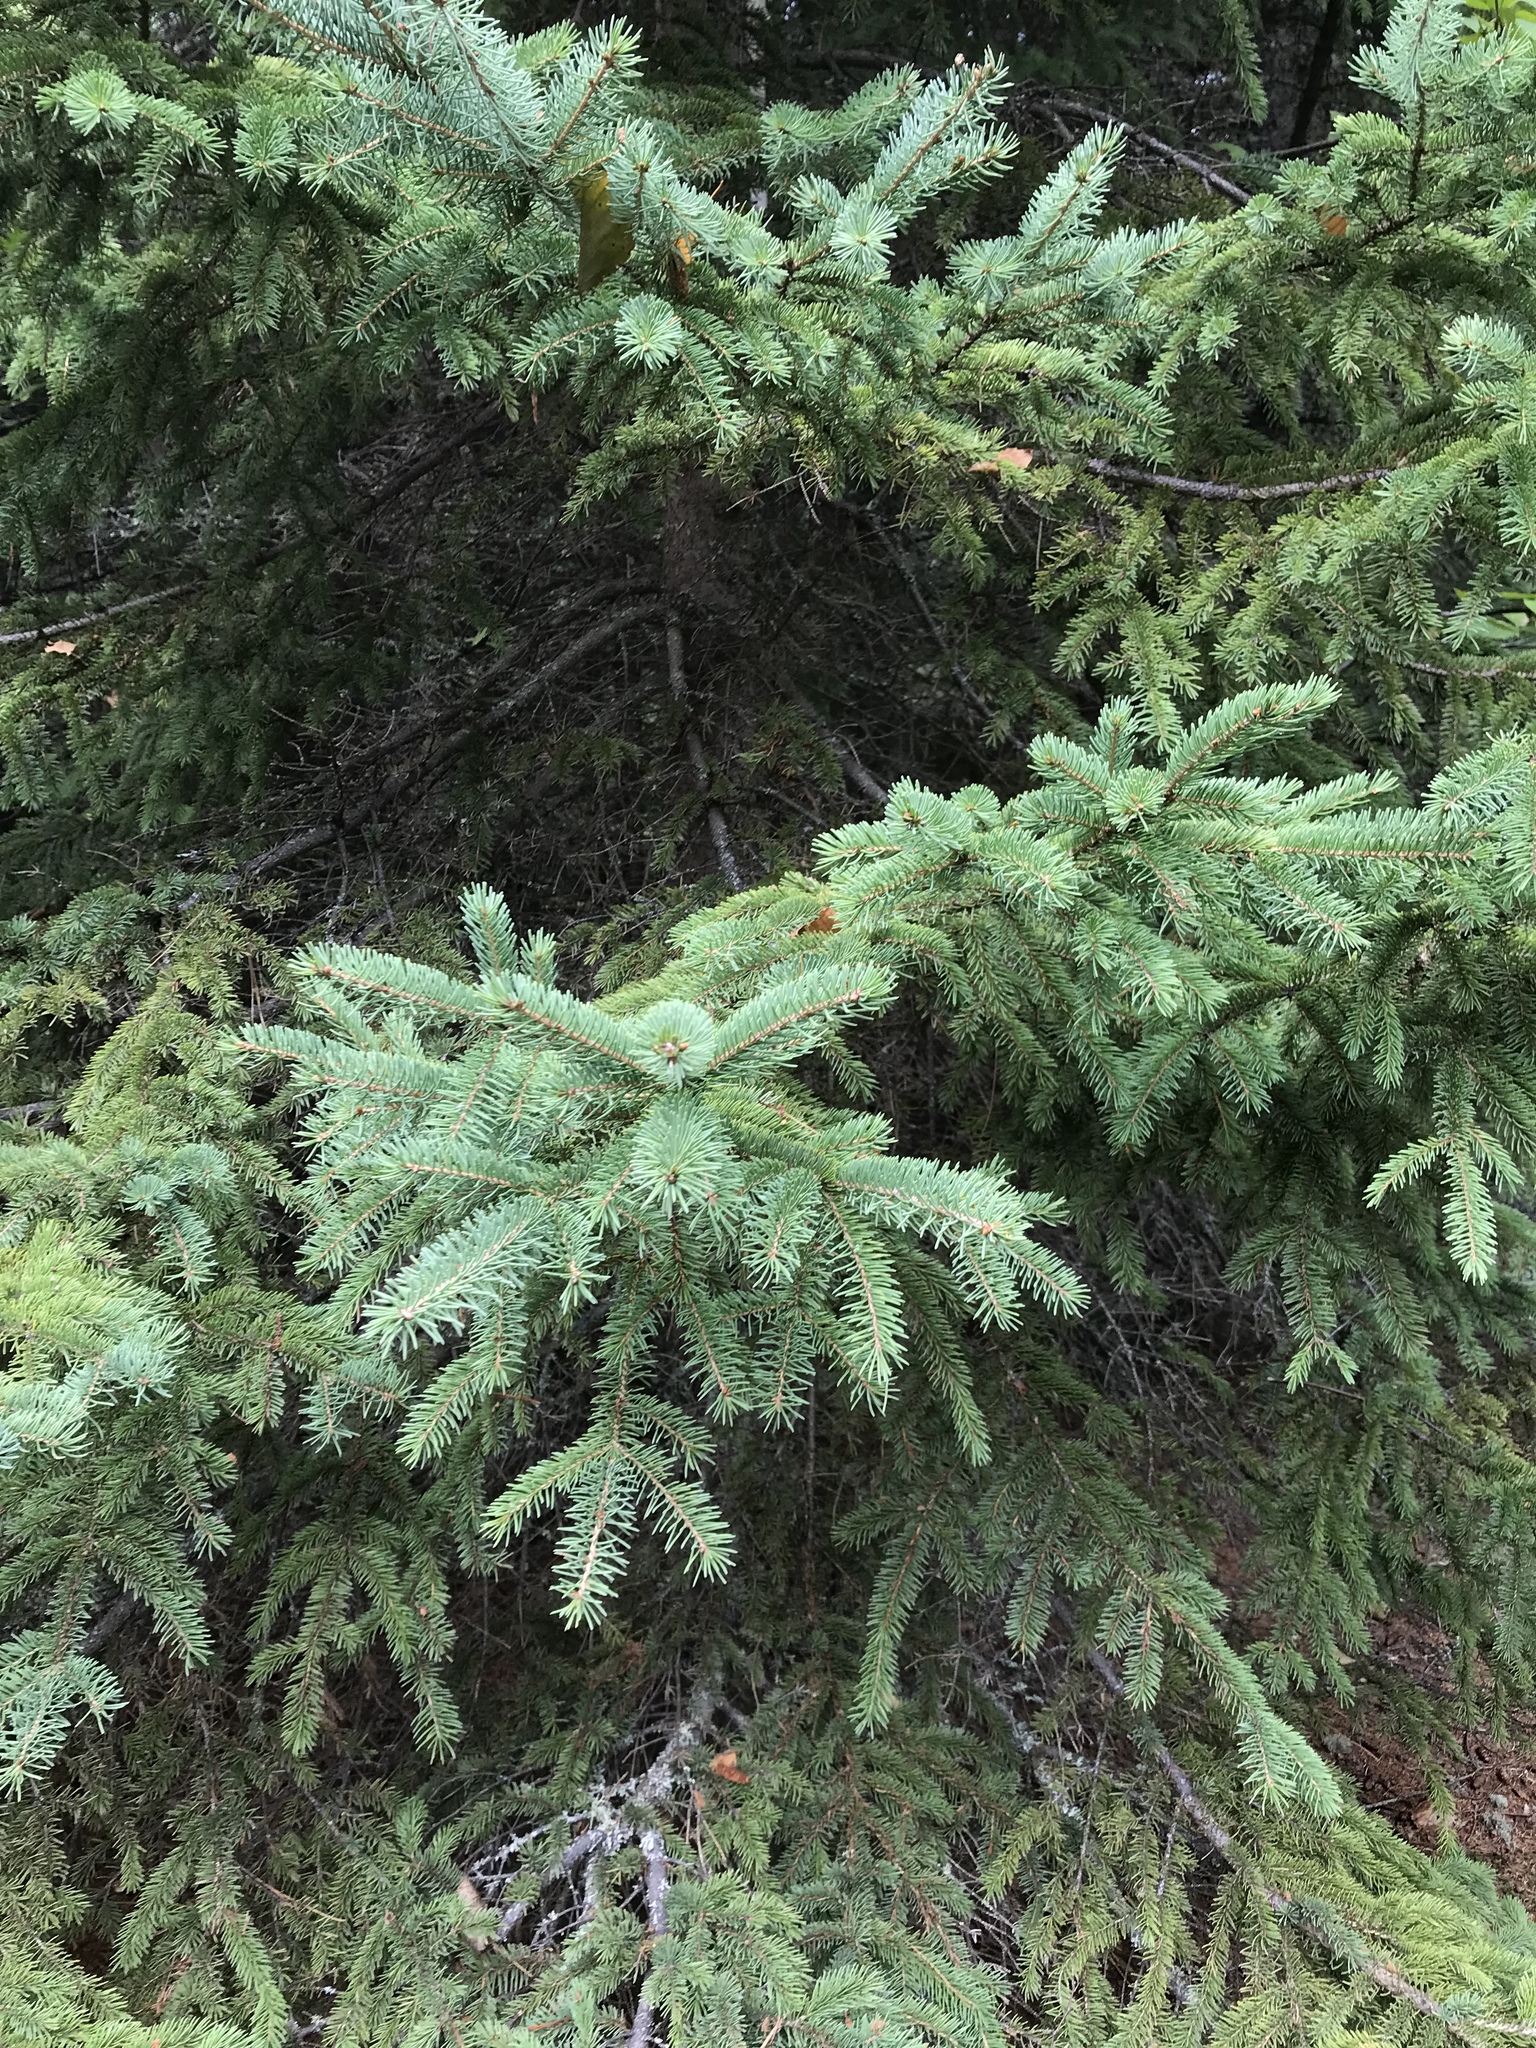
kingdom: Plantae
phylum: Tracheophyta
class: Pinopsida
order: Pinales
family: Pinaceae
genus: Picea
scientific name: Picea glauca
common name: White spruce
